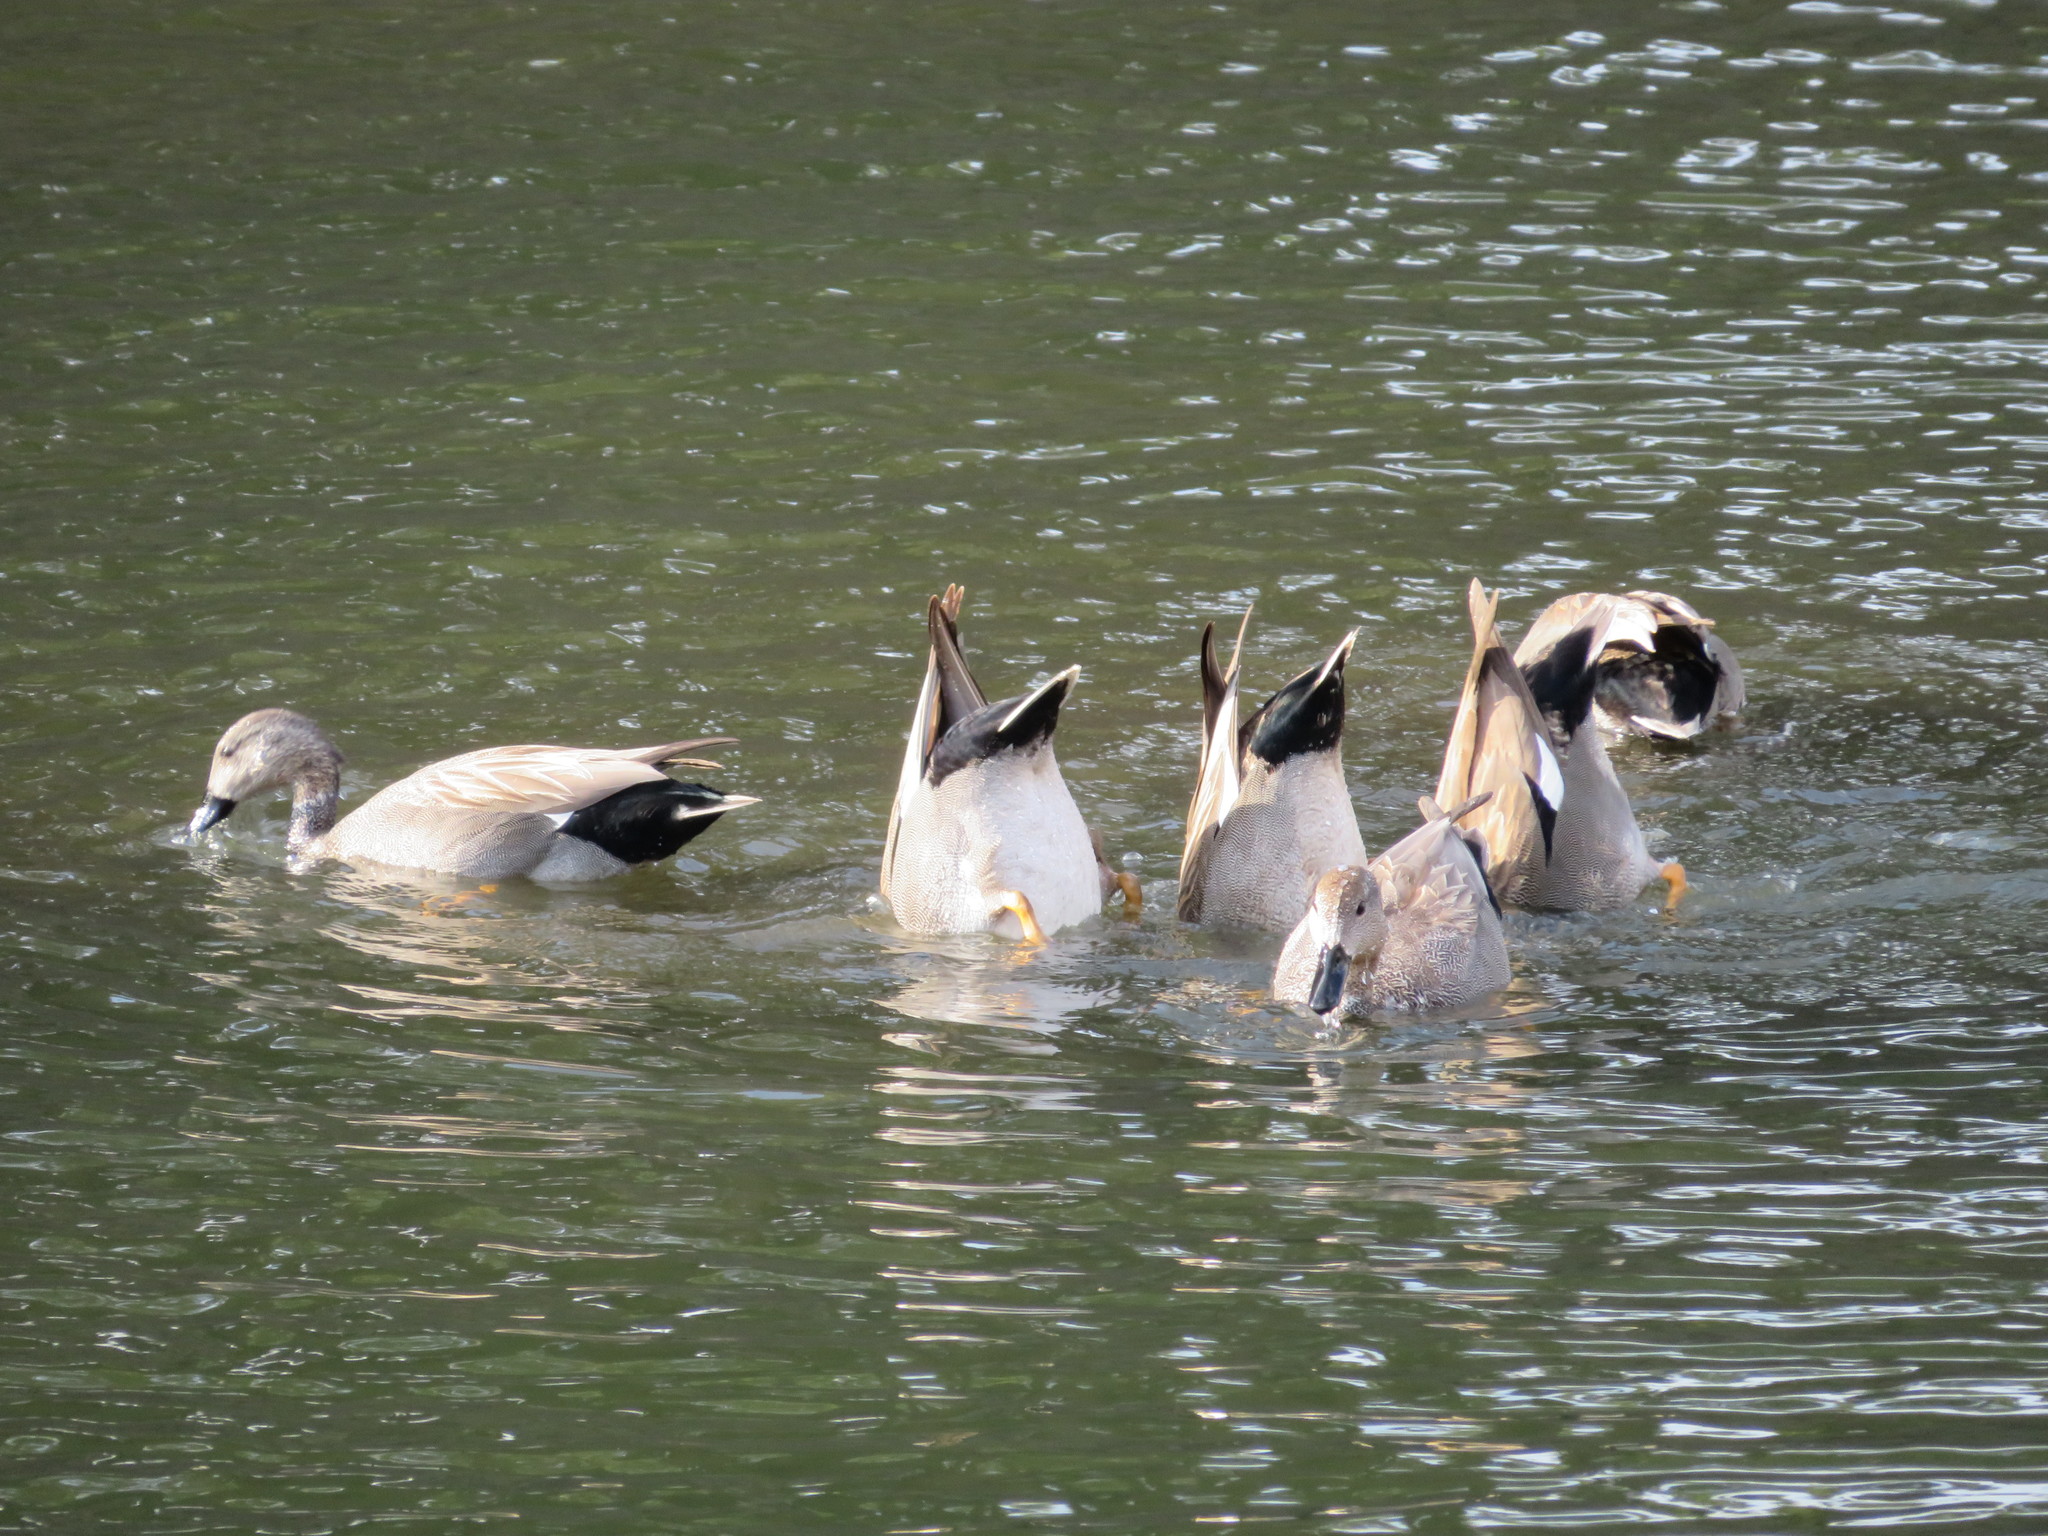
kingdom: Animalia
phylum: Chordata
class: Aves
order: Anseriformes
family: Anatidae
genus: Mareca
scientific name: Mareca strepera
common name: Gadwall
